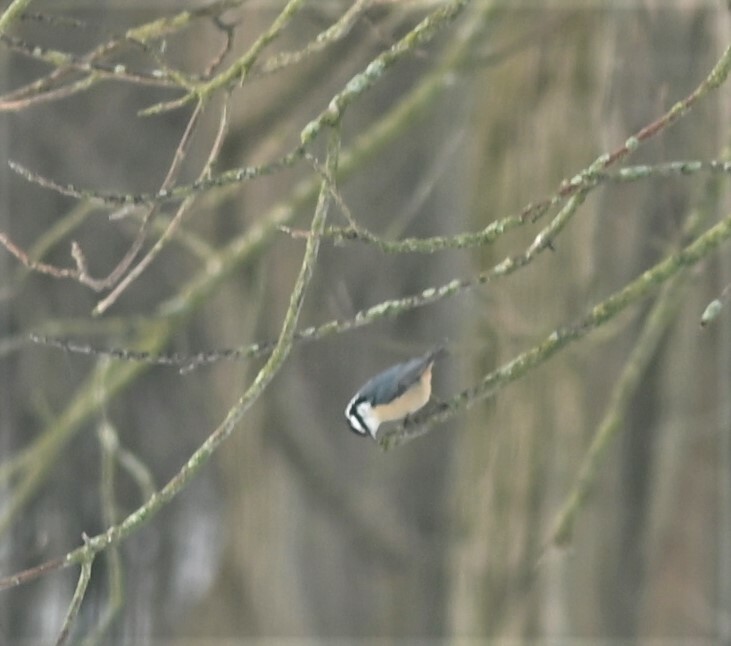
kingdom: Animalia
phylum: Chordata
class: Aves
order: Passeriformes
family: Sittidae
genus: Sitta
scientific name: Sitta canadensis
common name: Red-breasted nuthatch
